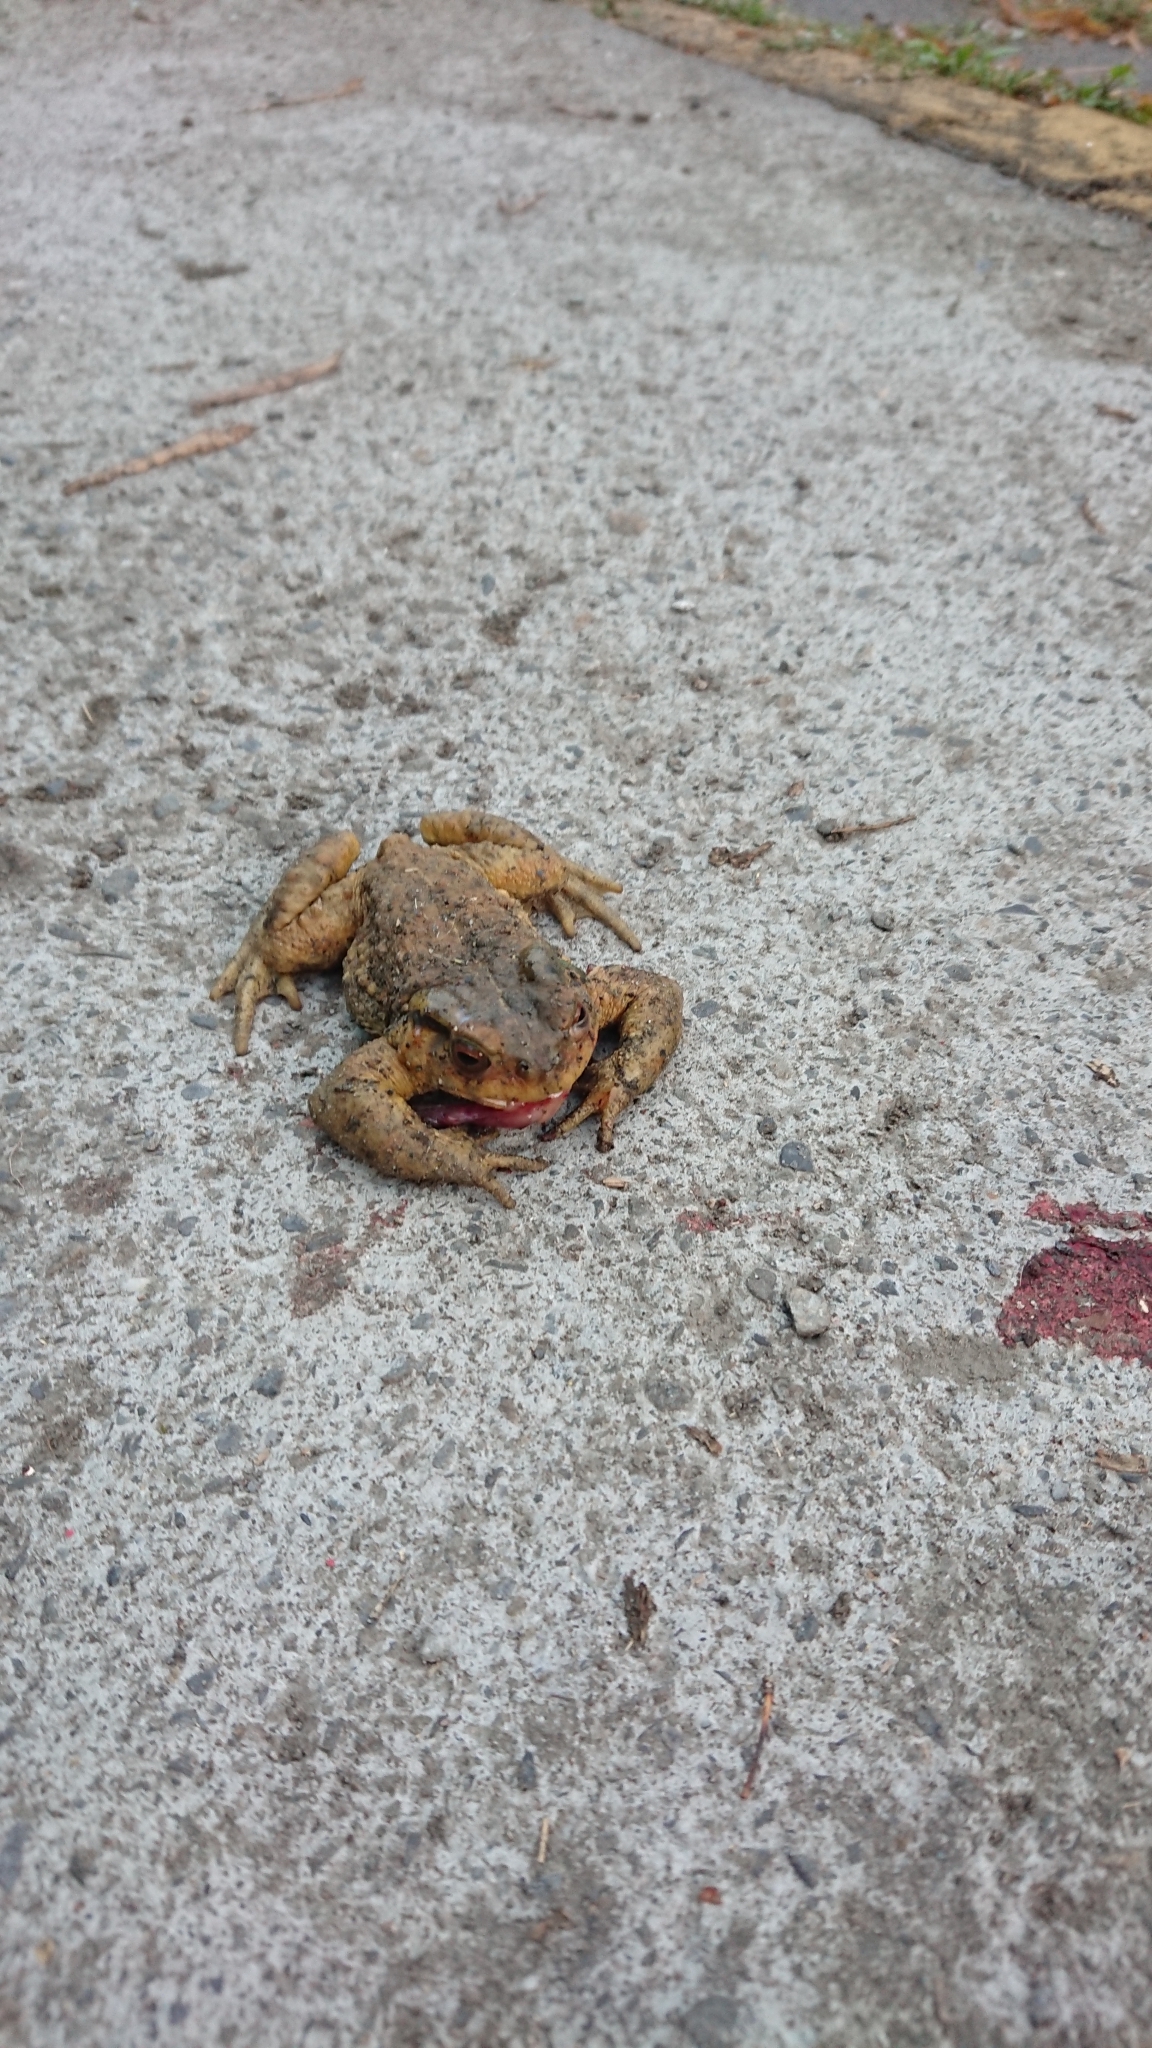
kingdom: Animalia
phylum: Chordata
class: Amphibia
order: Anura
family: Bufonidae
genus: Bufo
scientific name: Bufo bankorensis
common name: Bankor toad
